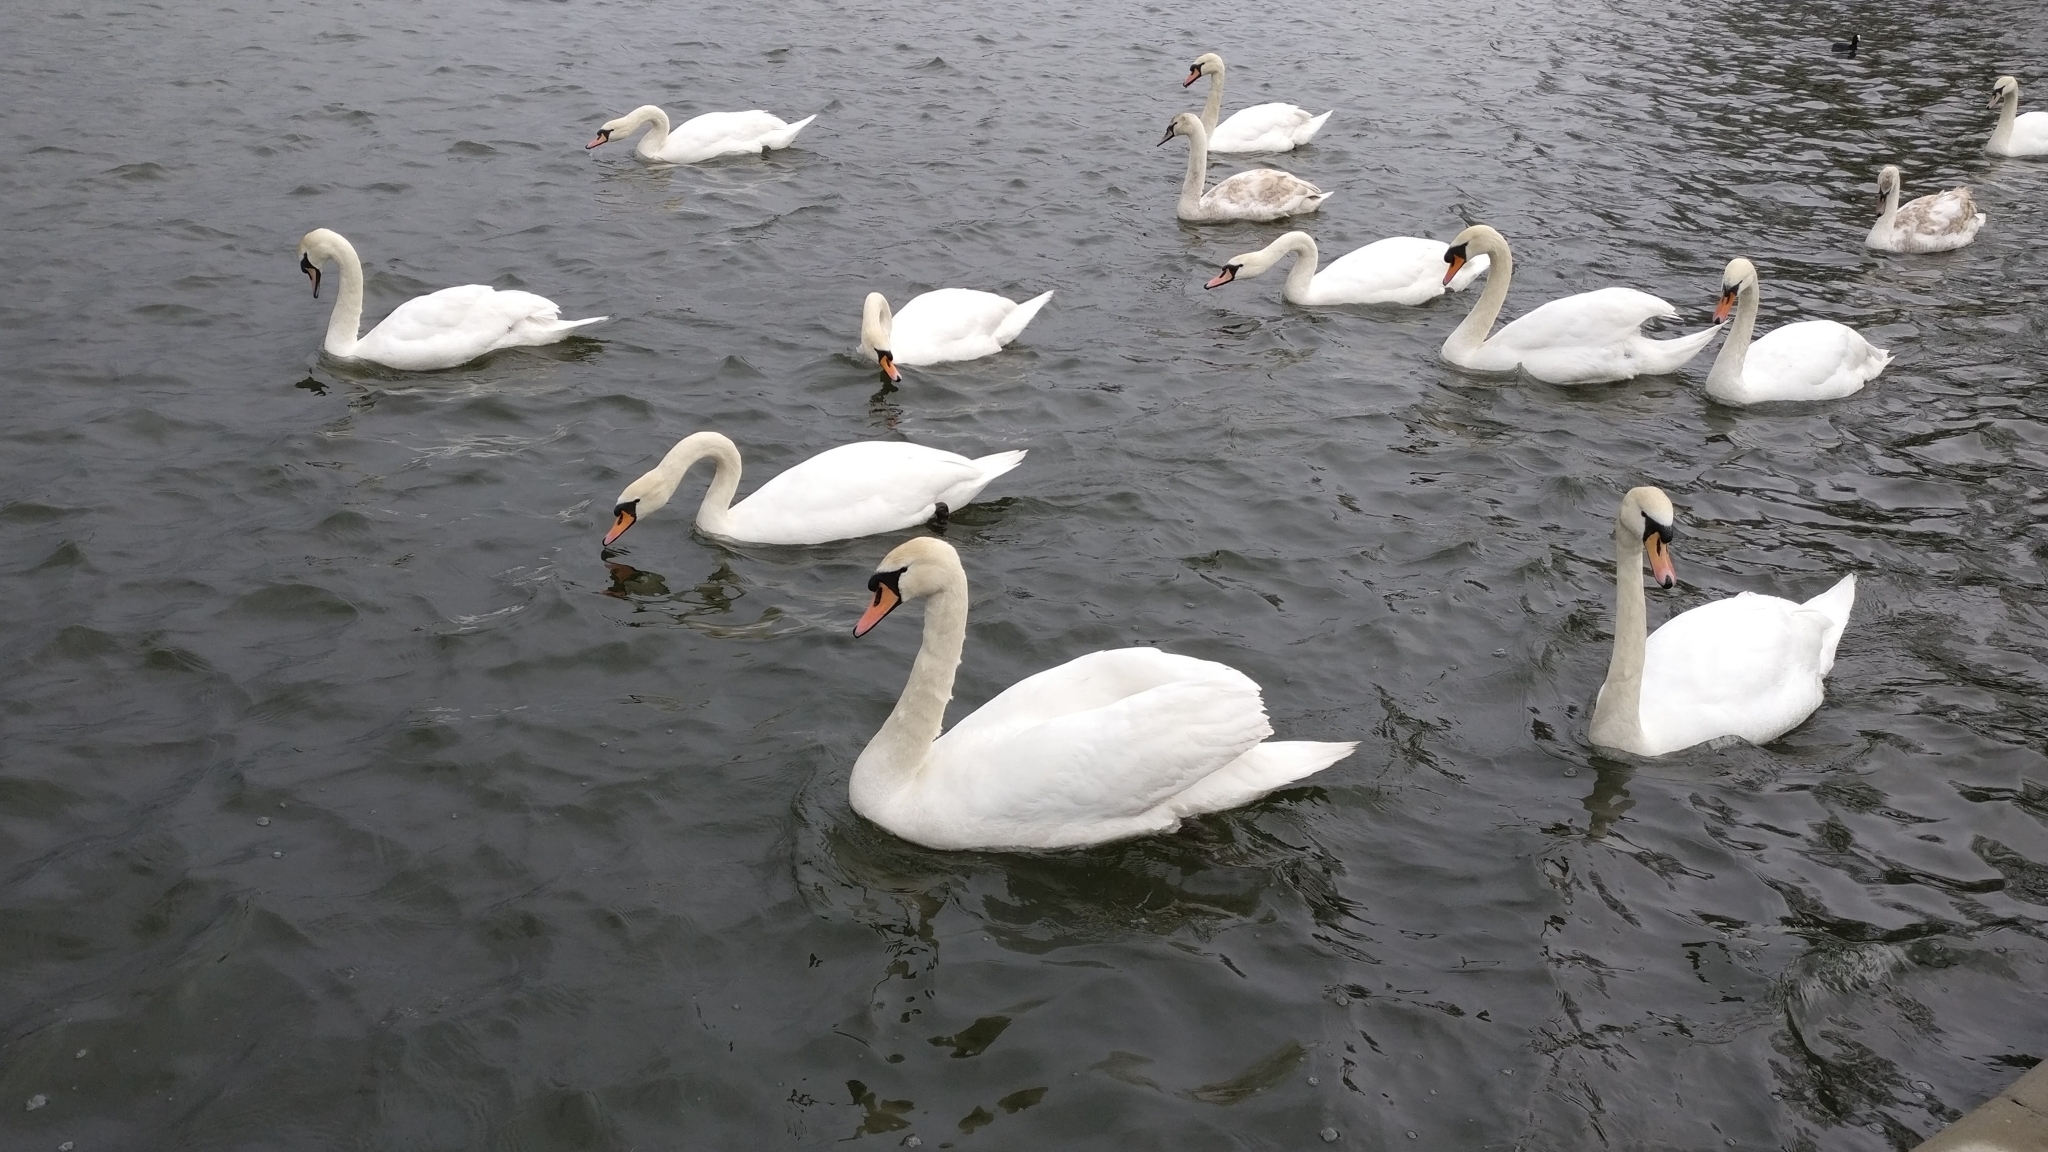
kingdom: Animalia
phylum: Chordata
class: Aves
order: Anseriformes
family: Anatidae
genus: Cygnus
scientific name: Cygnus olor
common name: Mute swan
